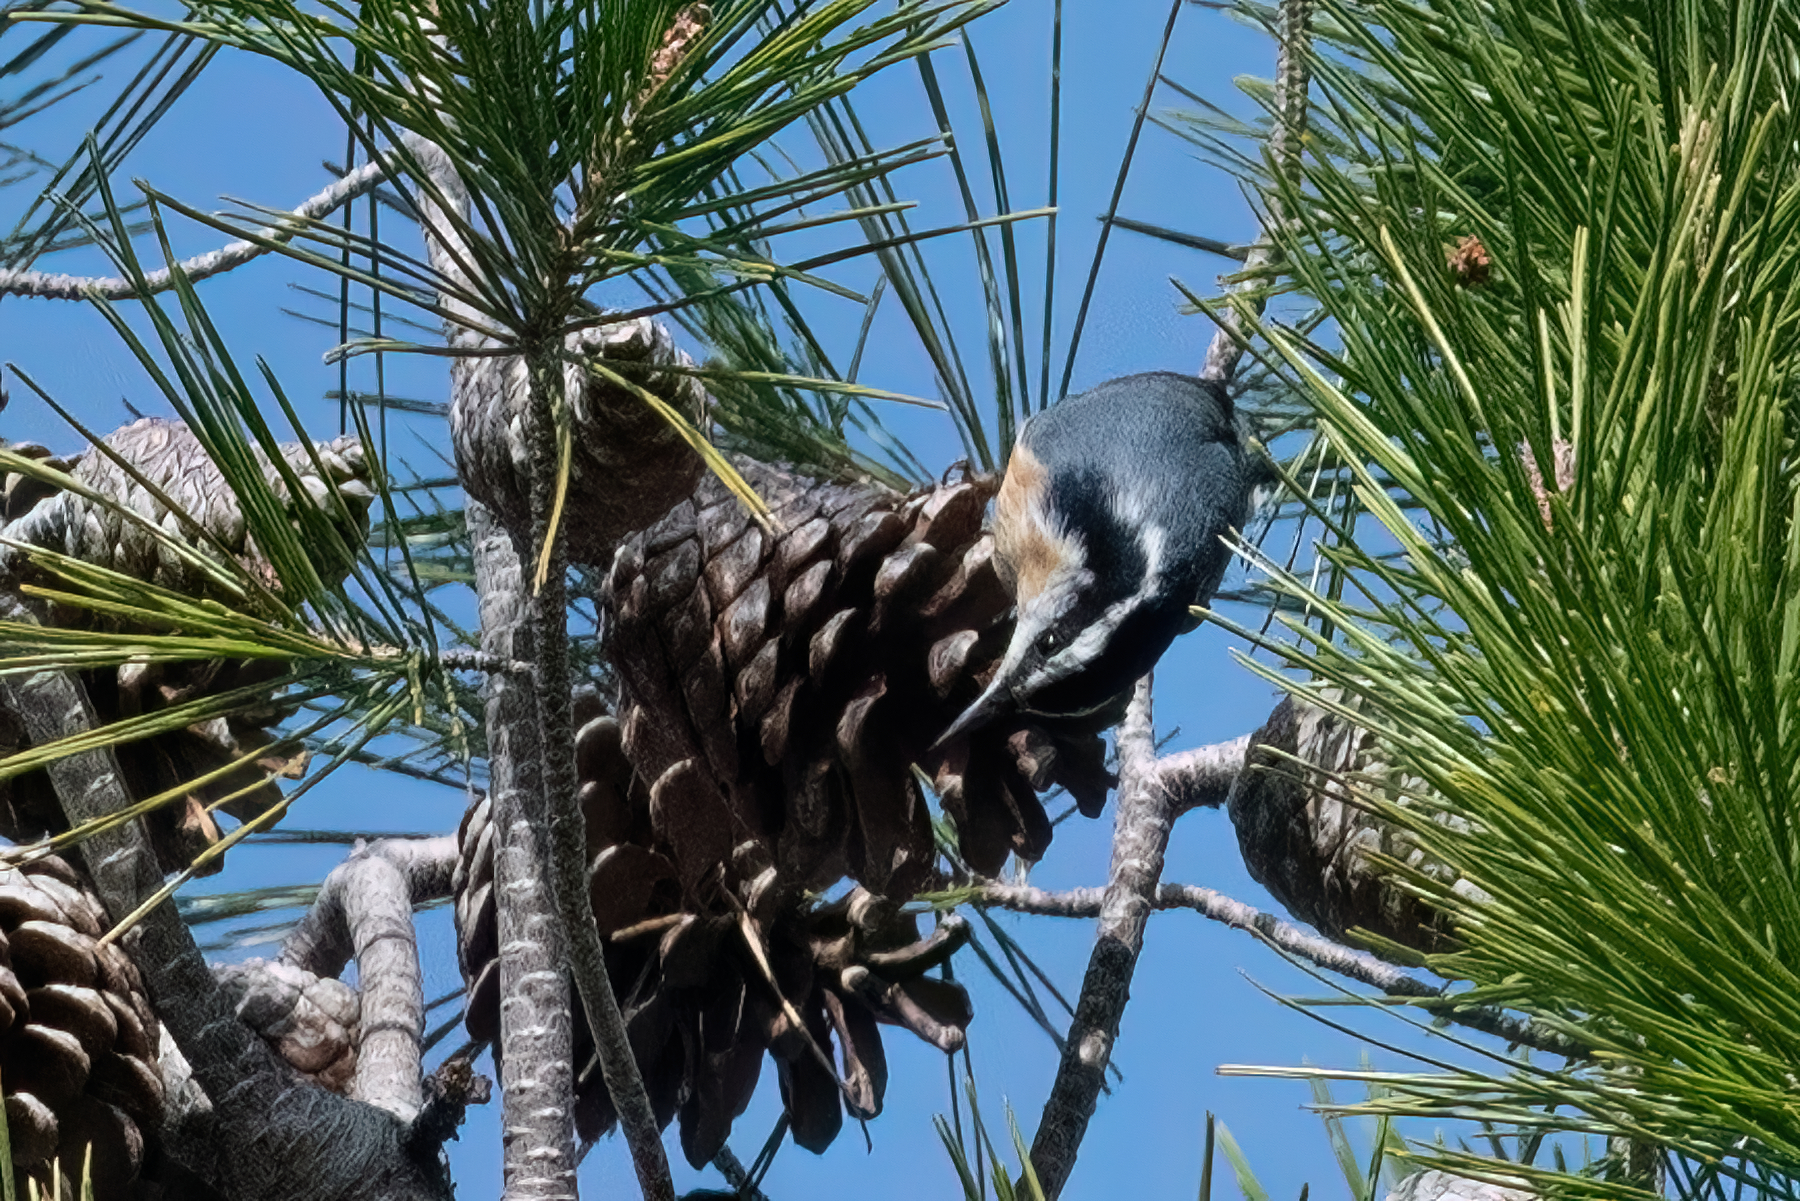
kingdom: Animalia
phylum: Chordata
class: Aves
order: Passeriformes
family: Sittidae
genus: Sitta
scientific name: Sitta canadensis
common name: Red-breasted nuthatch
